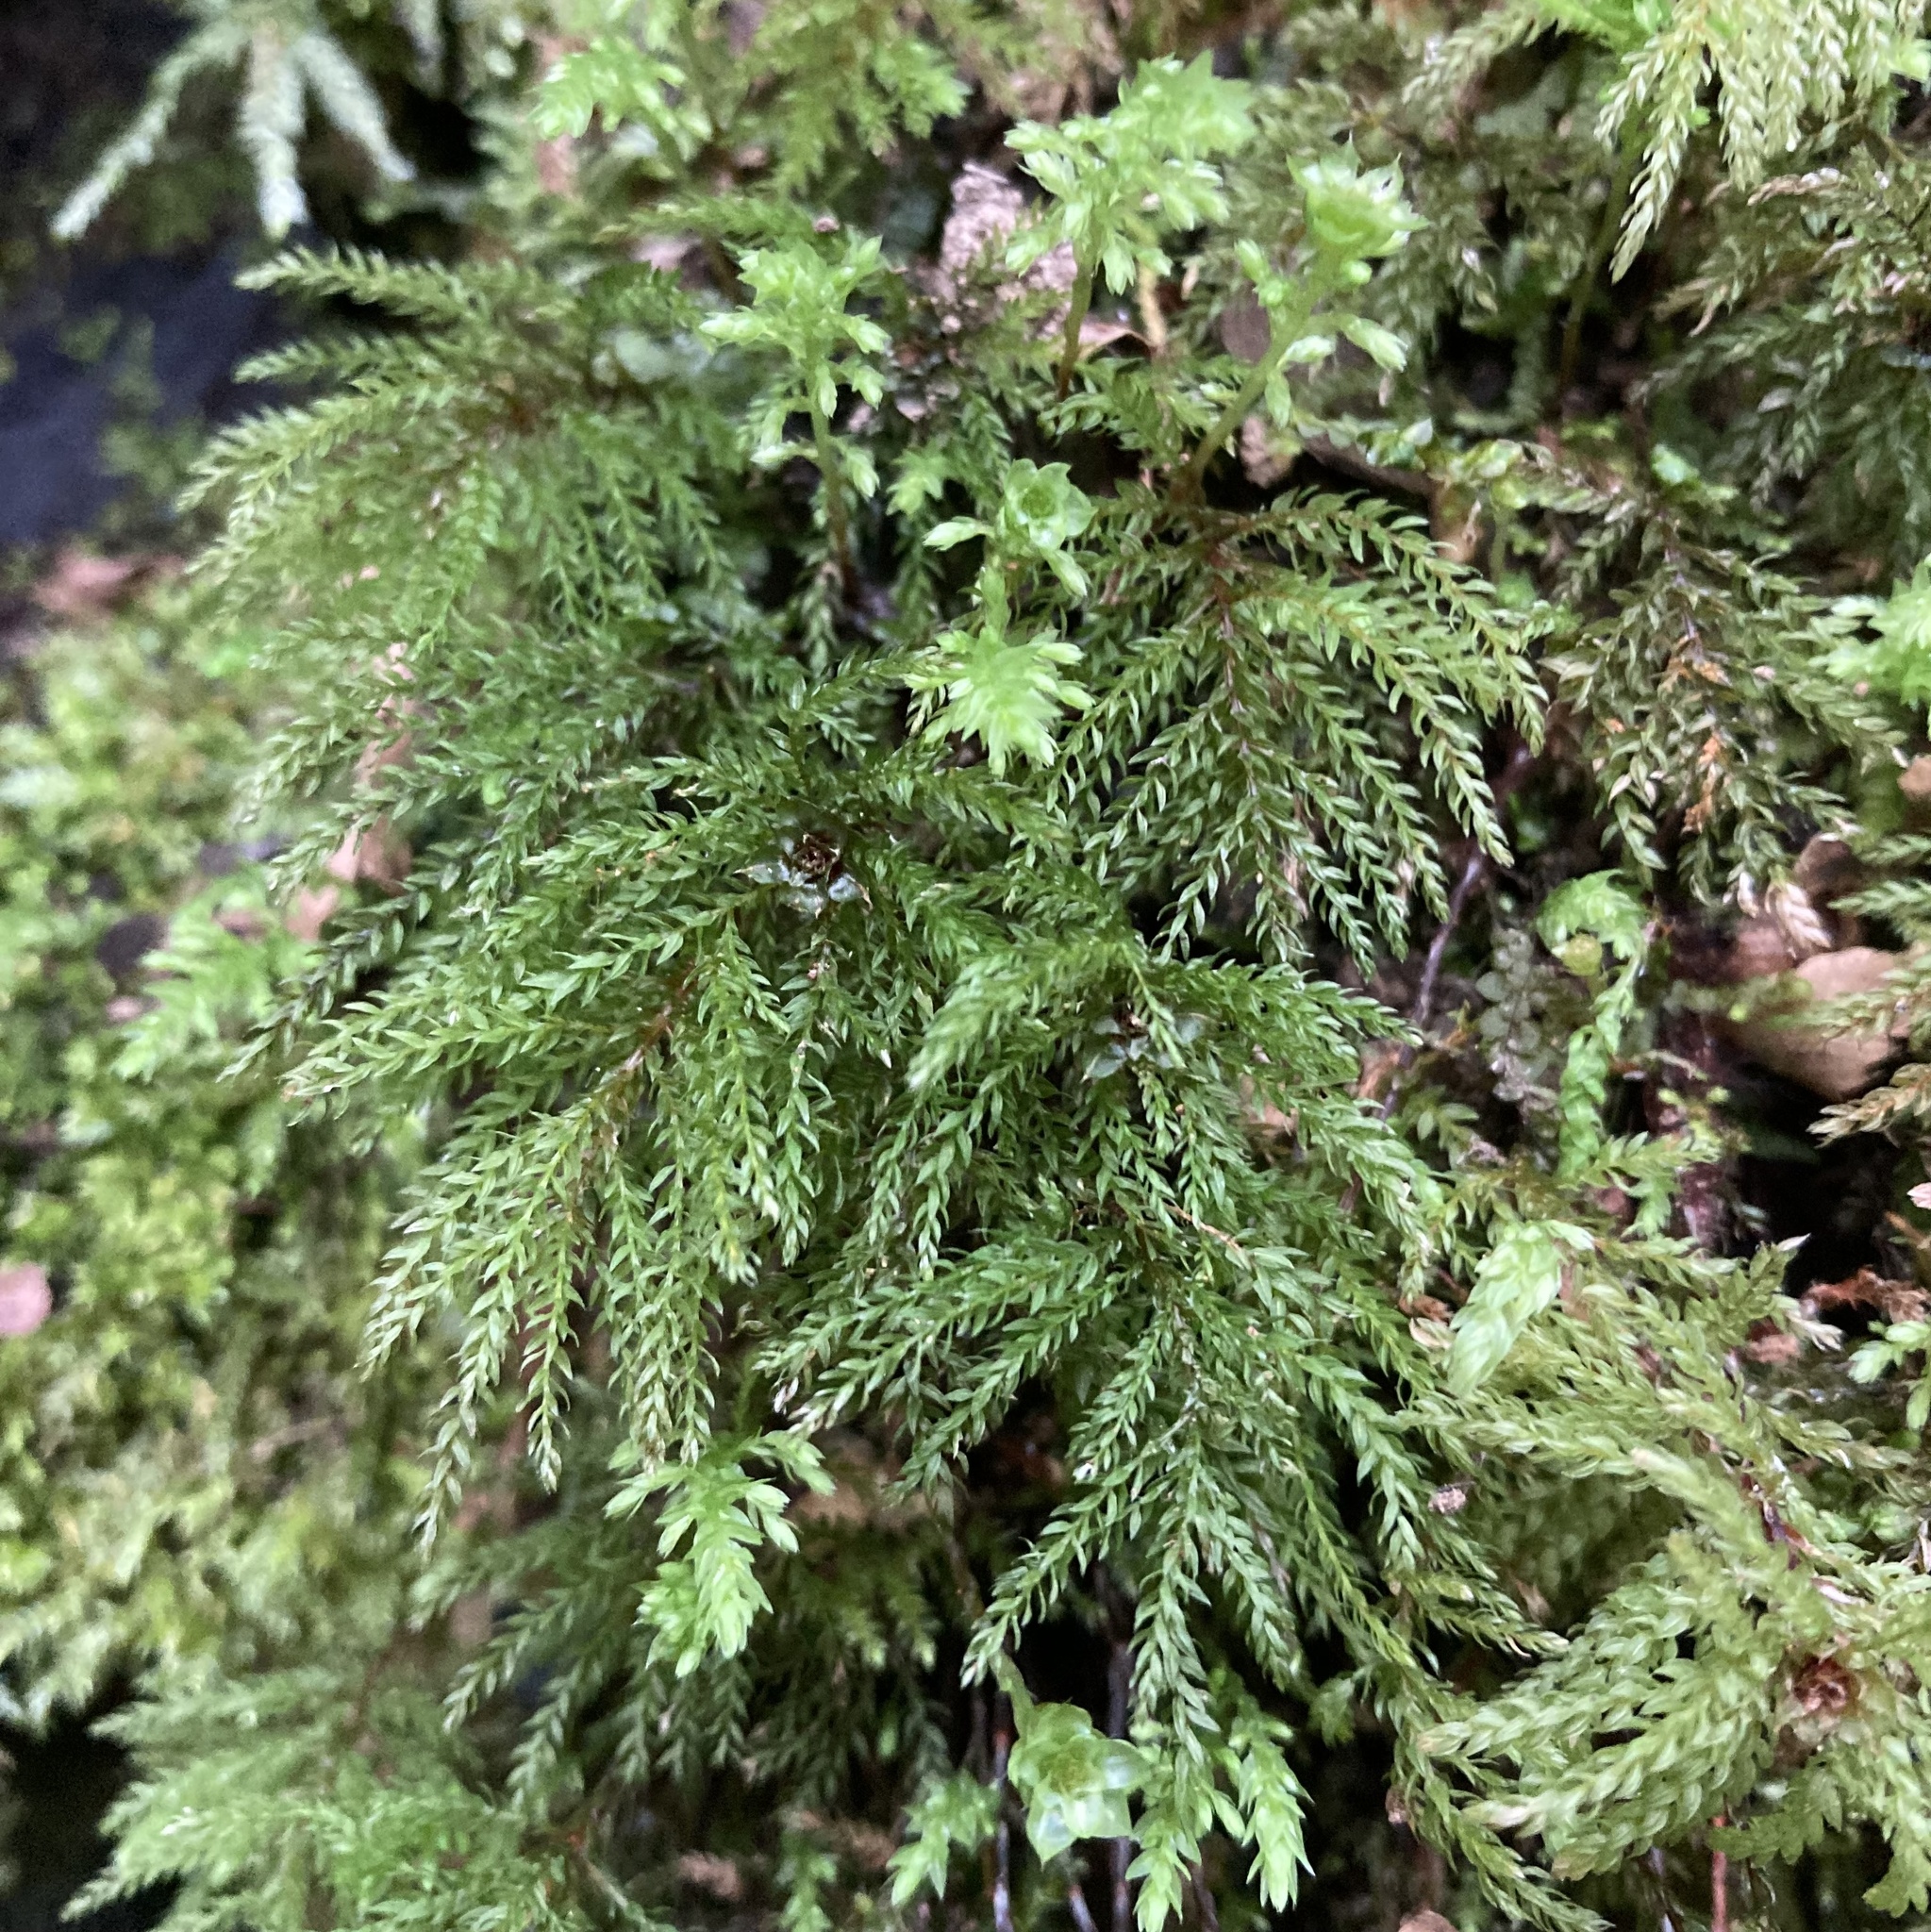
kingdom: Plantae
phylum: Bryophyta
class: Bryopsida
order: Bryales
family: Mniaceae
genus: Leucolepis
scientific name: Leucolepis acanthoneura
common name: Leucolepis umbrella moss
